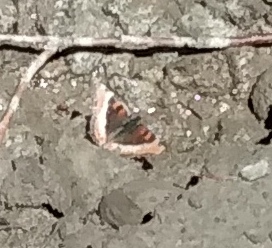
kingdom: Animalia
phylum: Arthropoda
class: Insecta
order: Lepidoptera
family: Nymphalidae
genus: Aglais
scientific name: Aglais milberti
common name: Milbert's tortoiseshell
